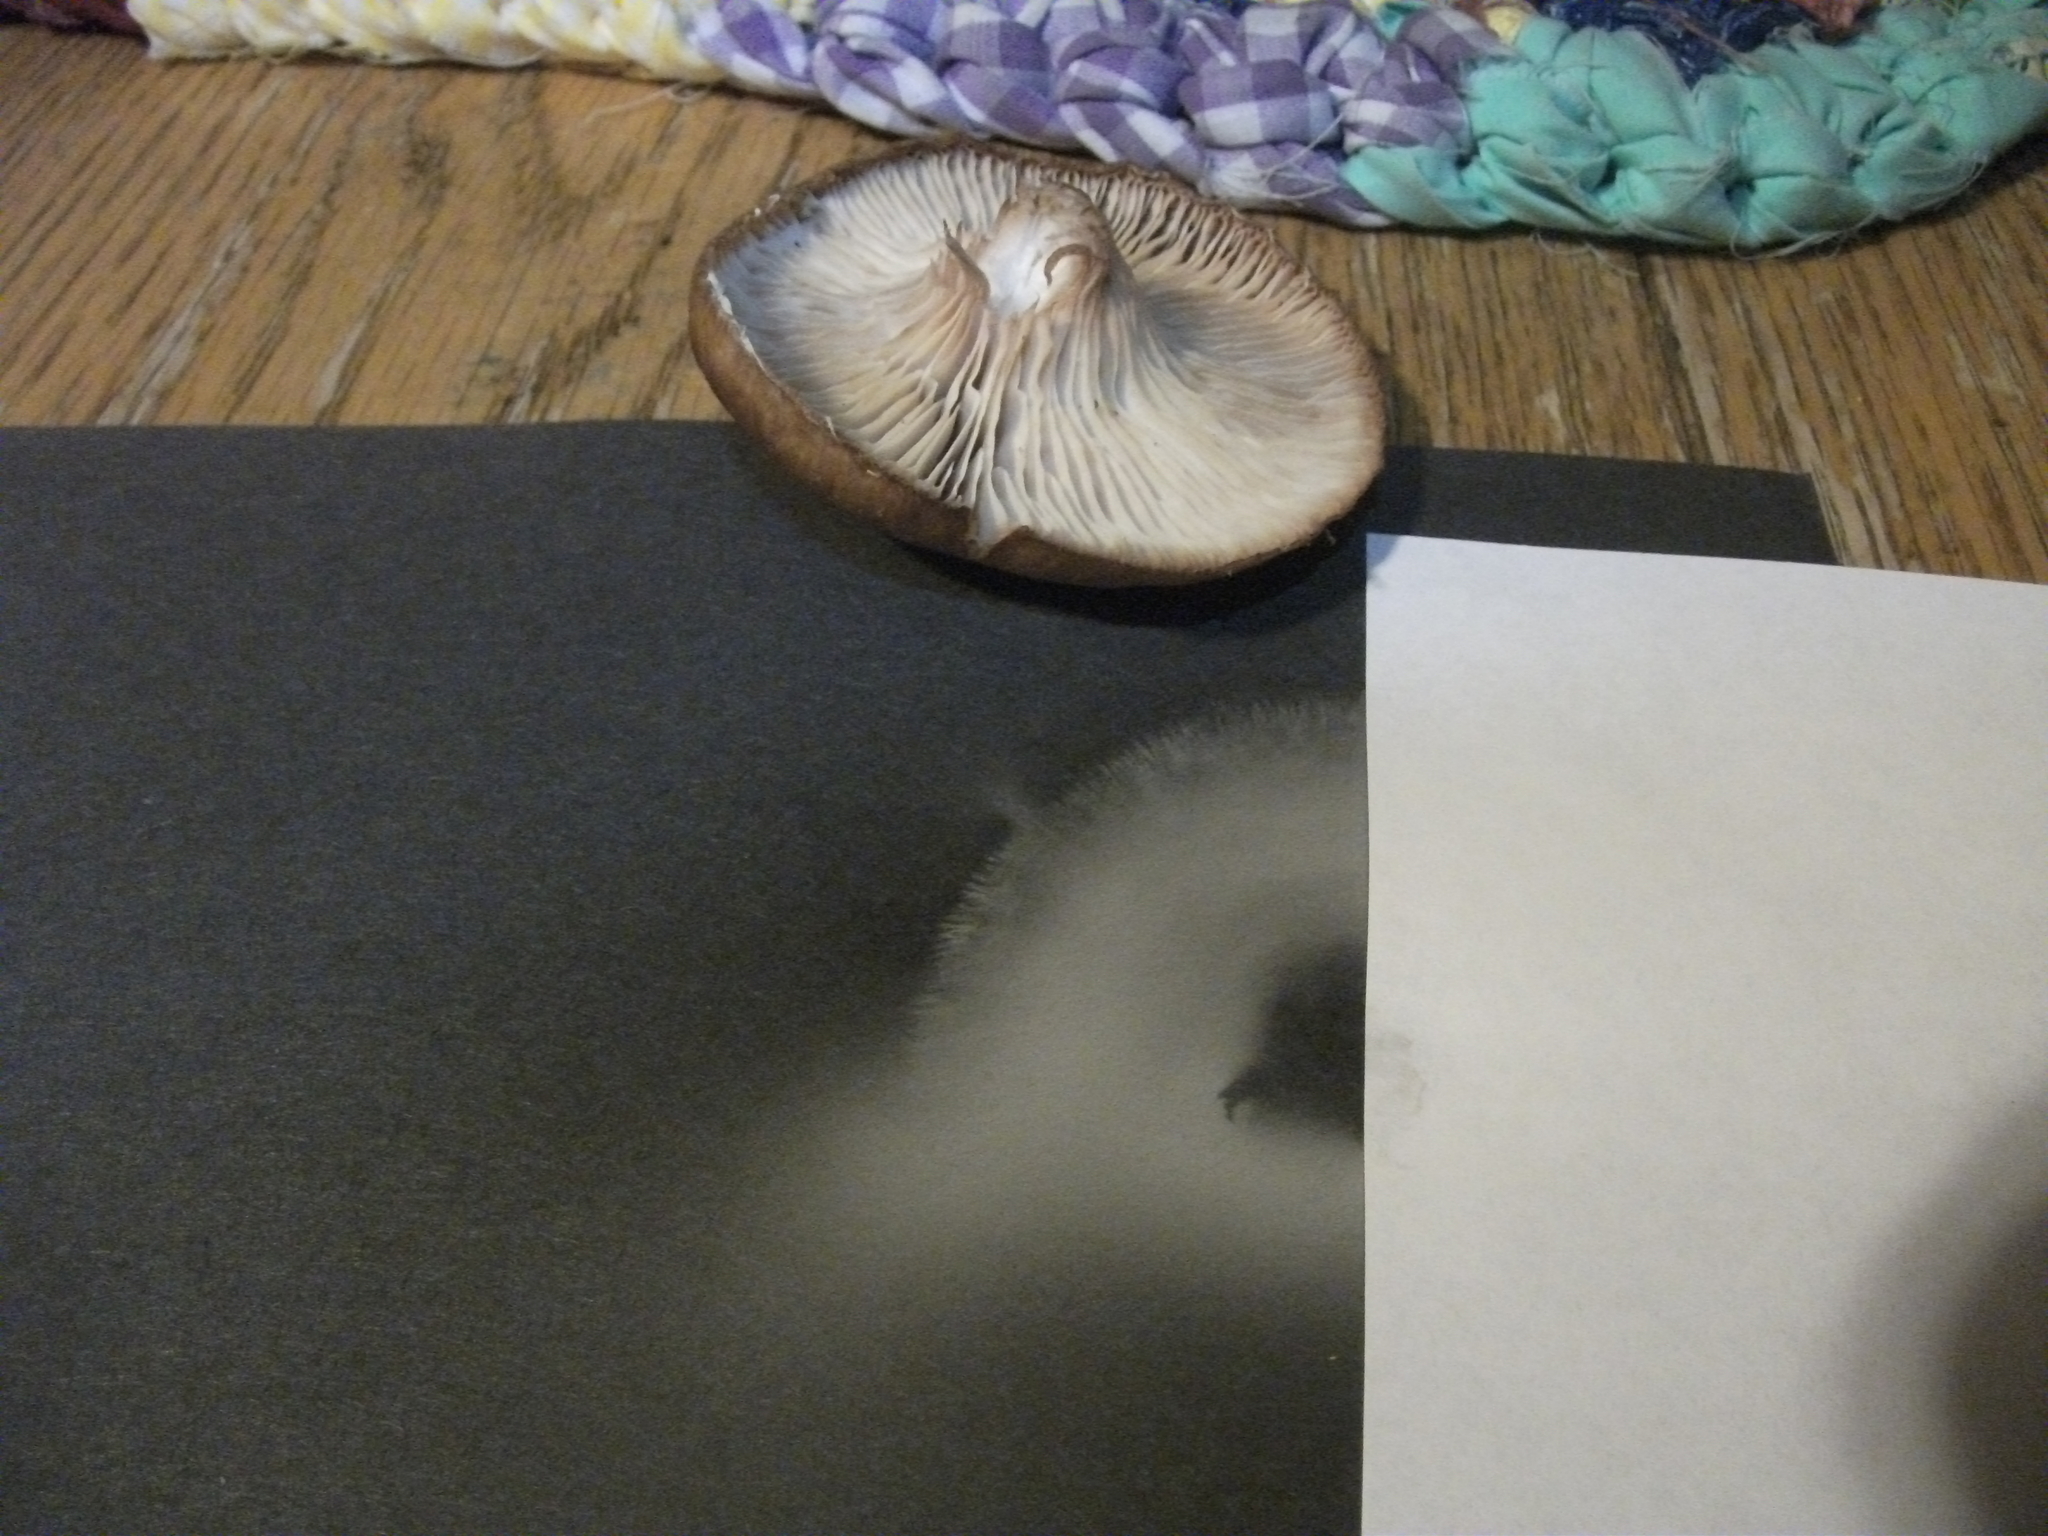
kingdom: Fungi
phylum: Basidiomycota
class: Agaricomycetes
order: Agaricales
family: Physalacriaceae
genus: Armillaria
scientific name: Armillaria sinapina
